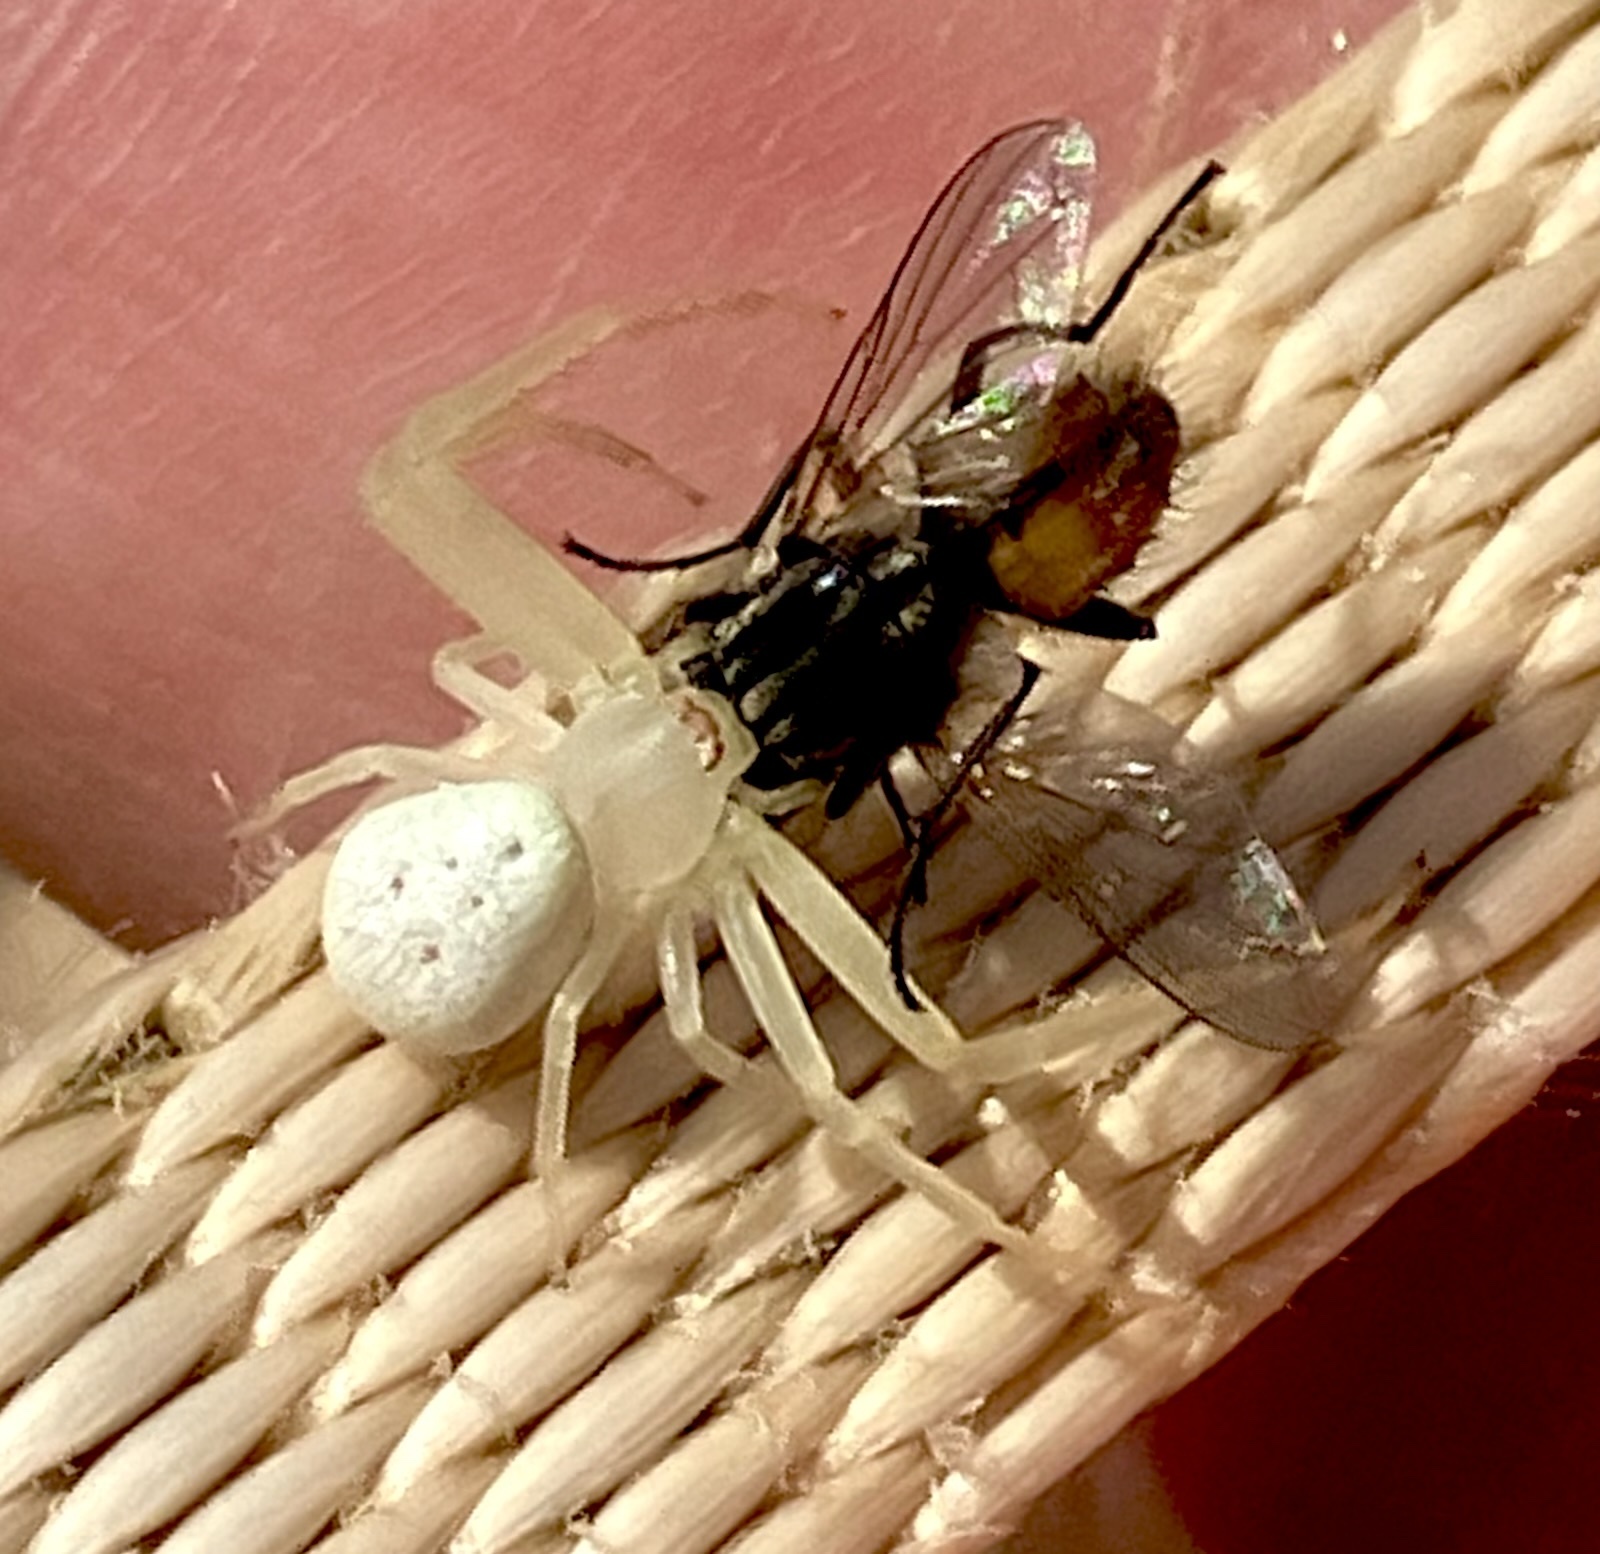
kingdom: Animalia
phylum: Arthropoda
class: Arachnida
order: Araneae
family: Thomisidae
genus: Misumessus
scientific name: Misumessus oblongus
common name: American green crab spider
